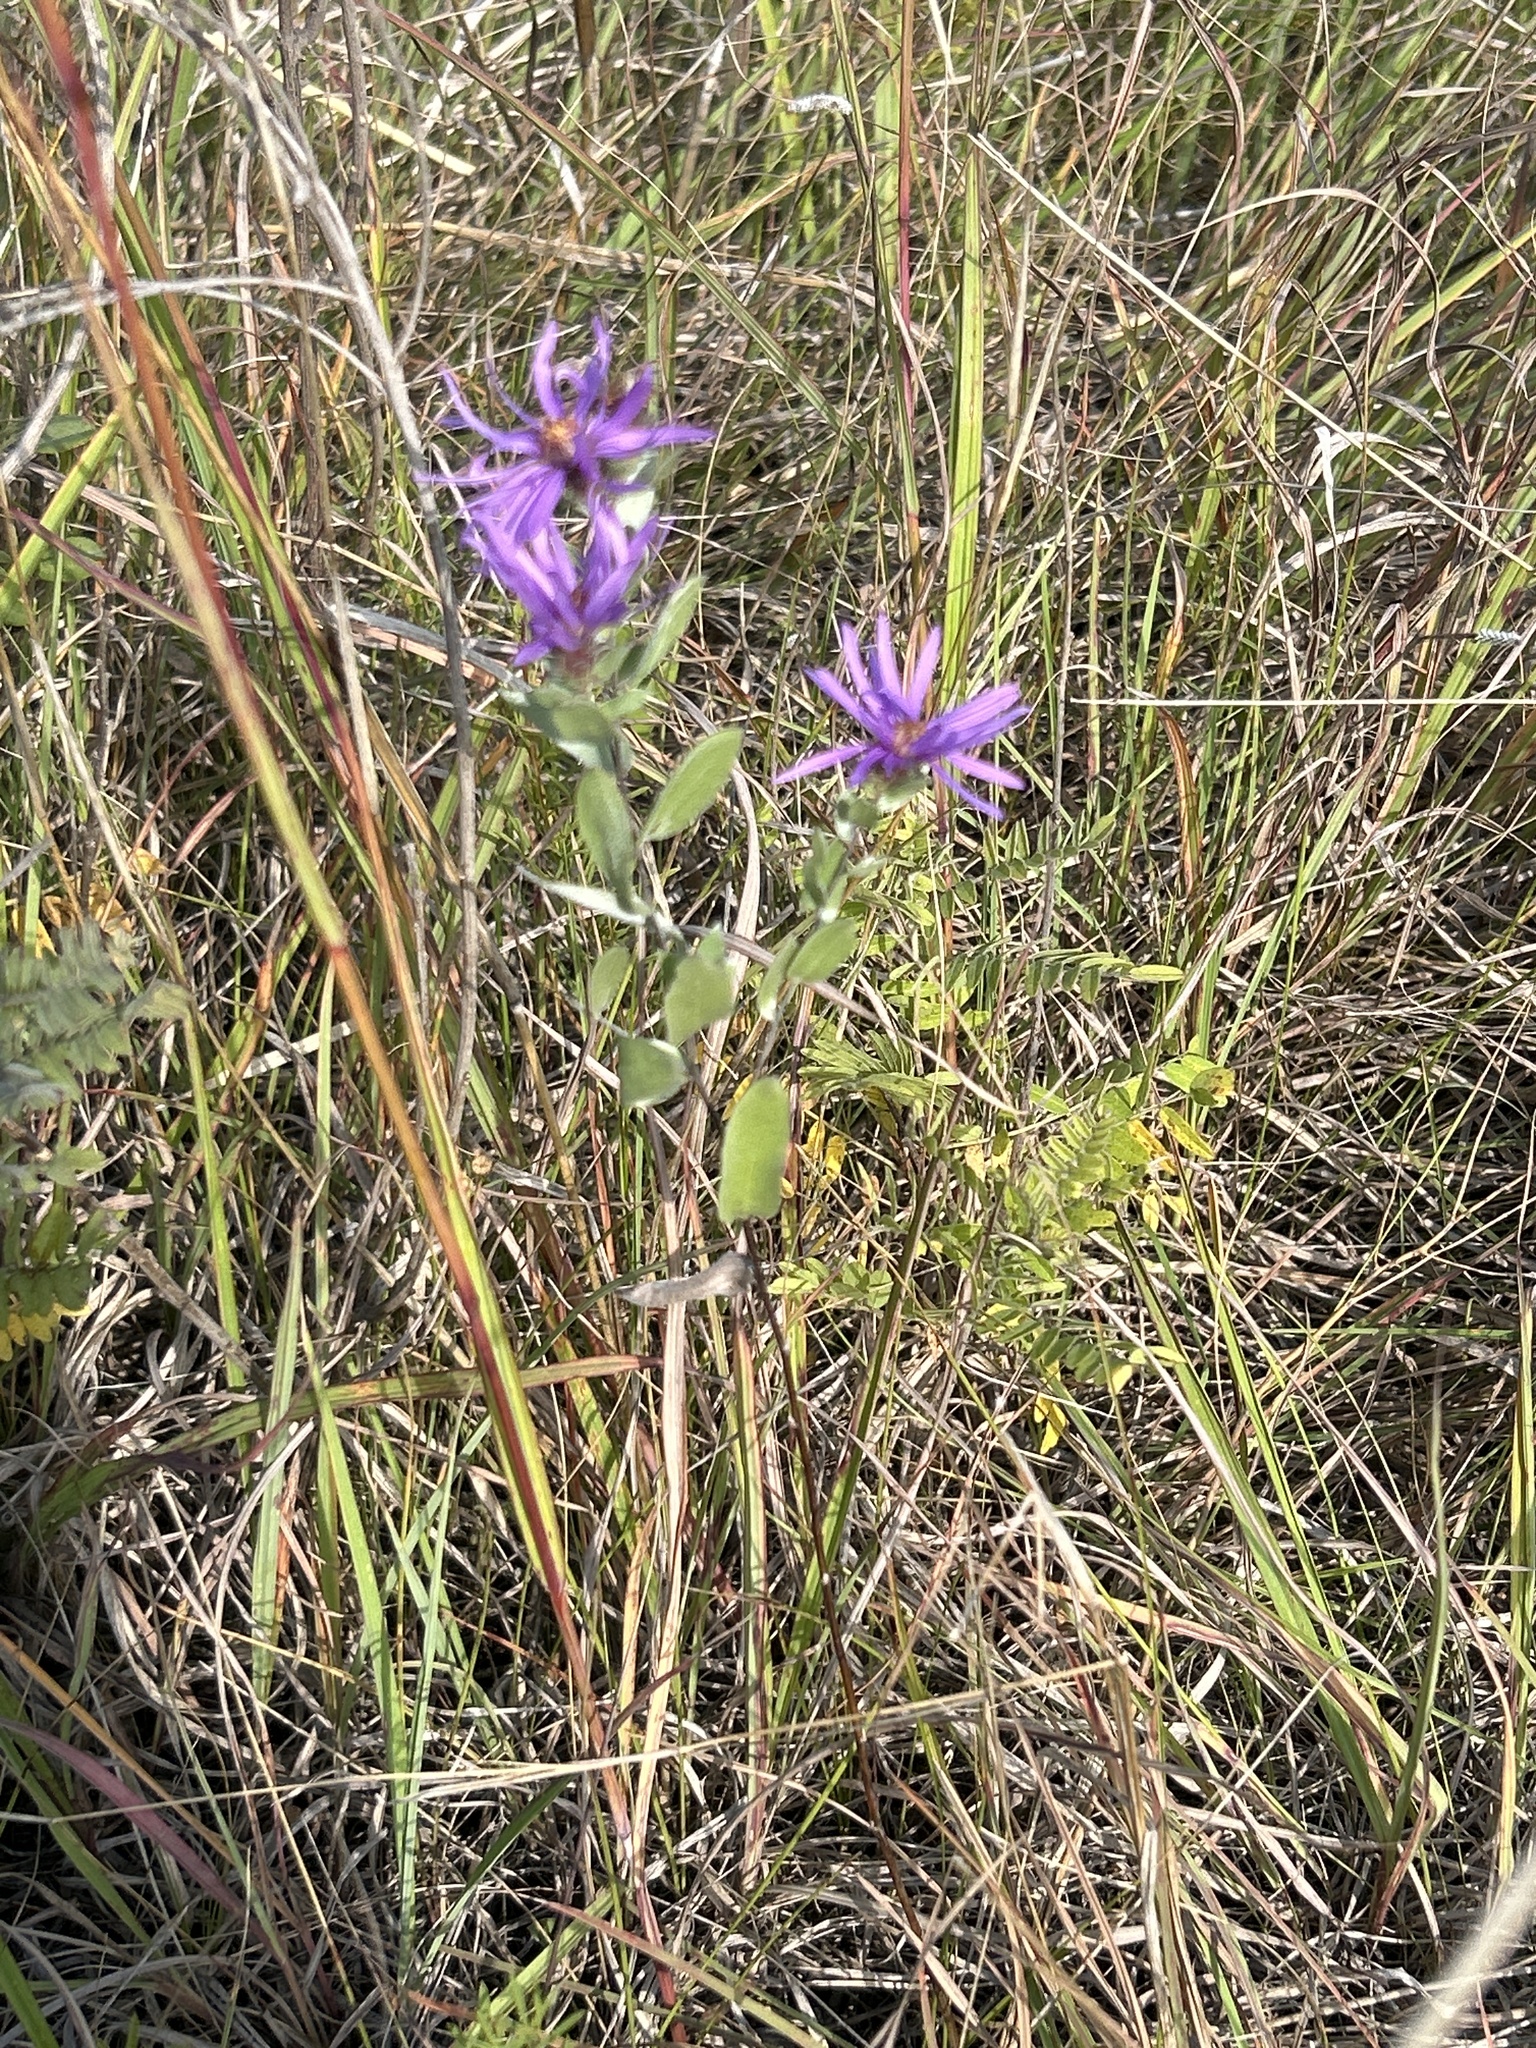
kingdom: Plantae
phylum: Tracheophyta
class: Magnoliopsida
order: Asterales
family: Asteraceae
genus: Symphyotrichum
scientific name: Symphyotrichum sericeum
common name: Silky aster
